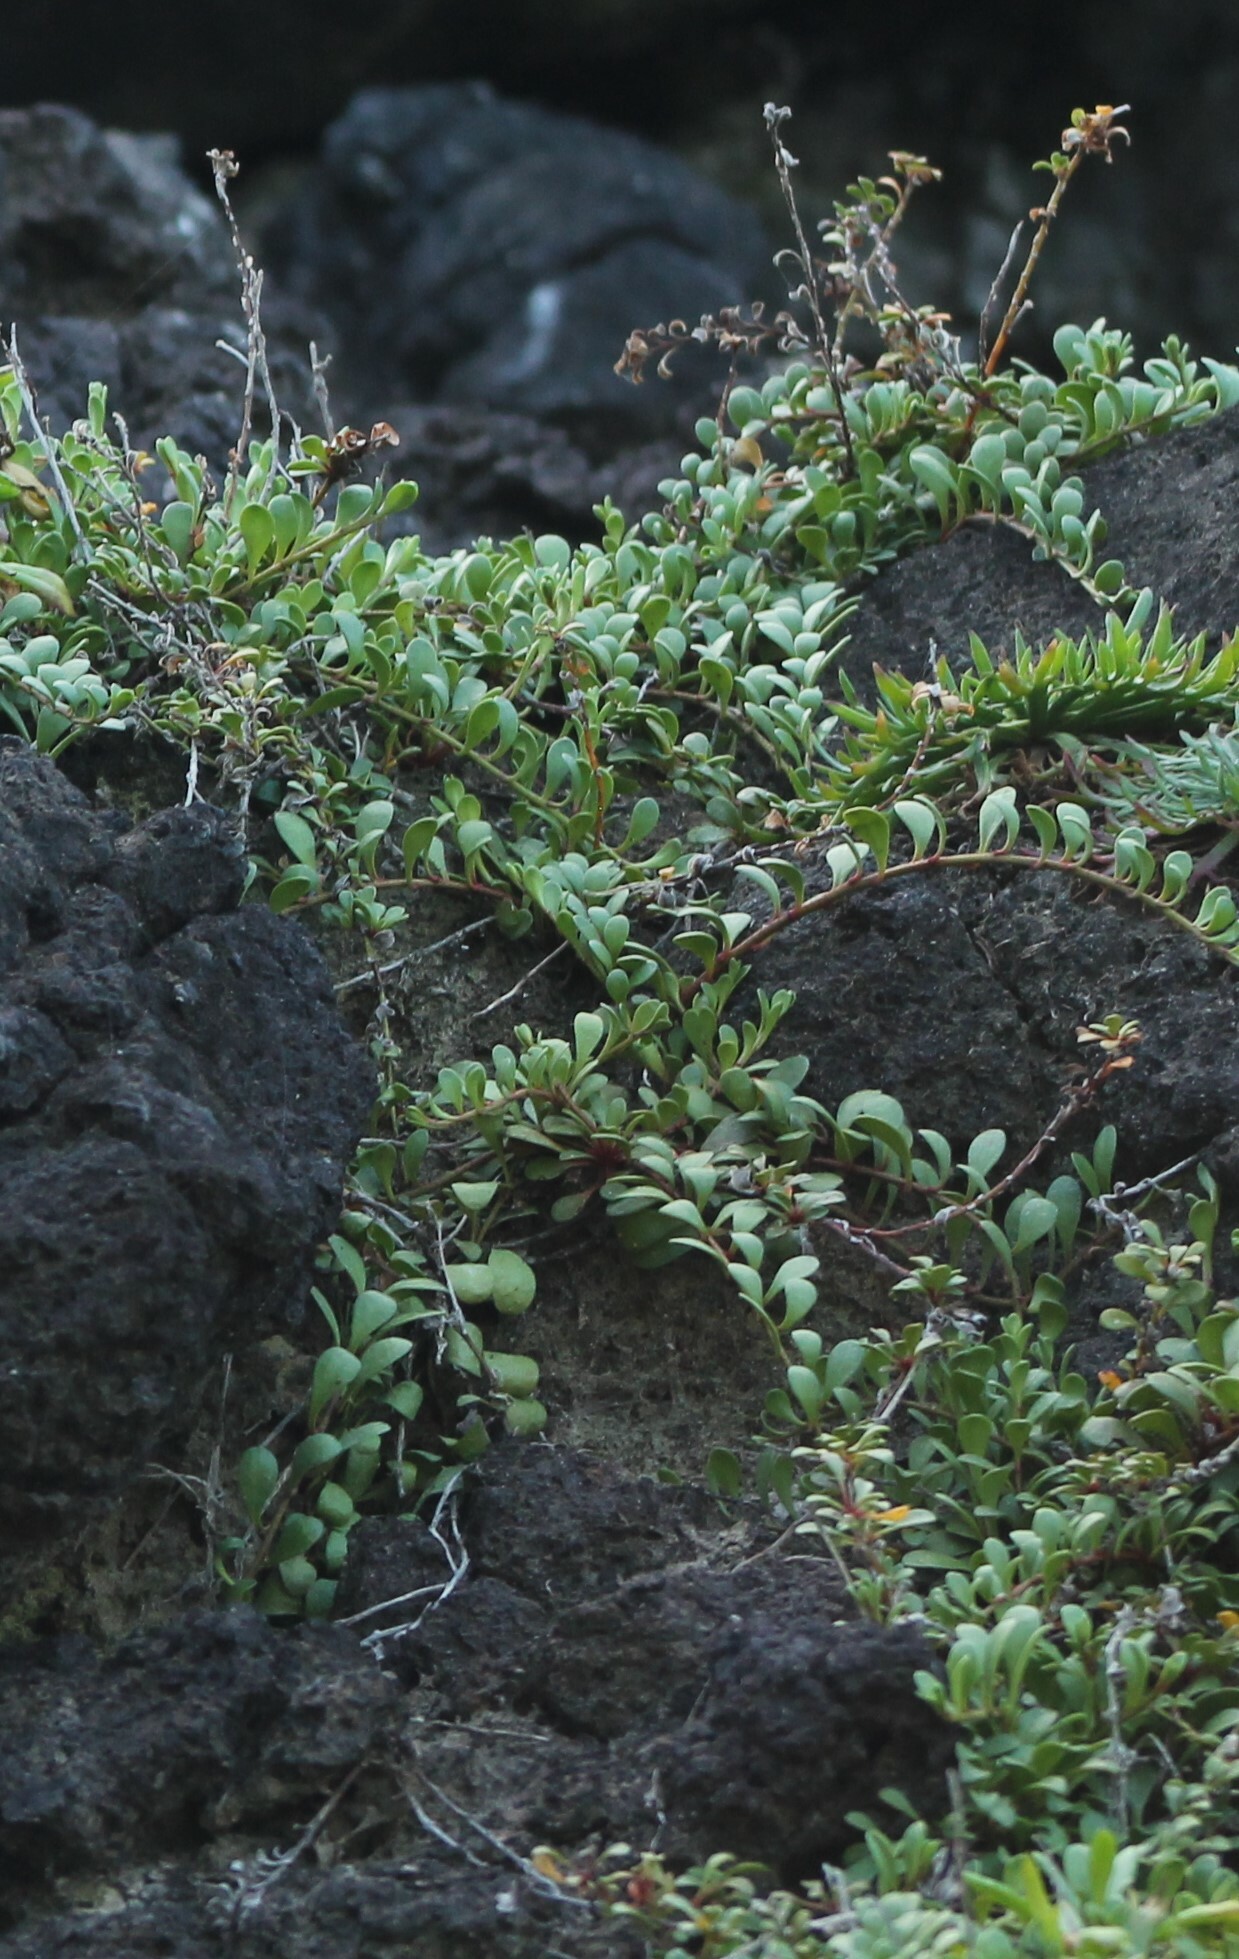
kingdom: Plantae
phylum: Tracheophyta
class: Magnoliopsida
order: Ericales
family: Primulaceae
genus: Samolus
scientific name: Samolus repens
